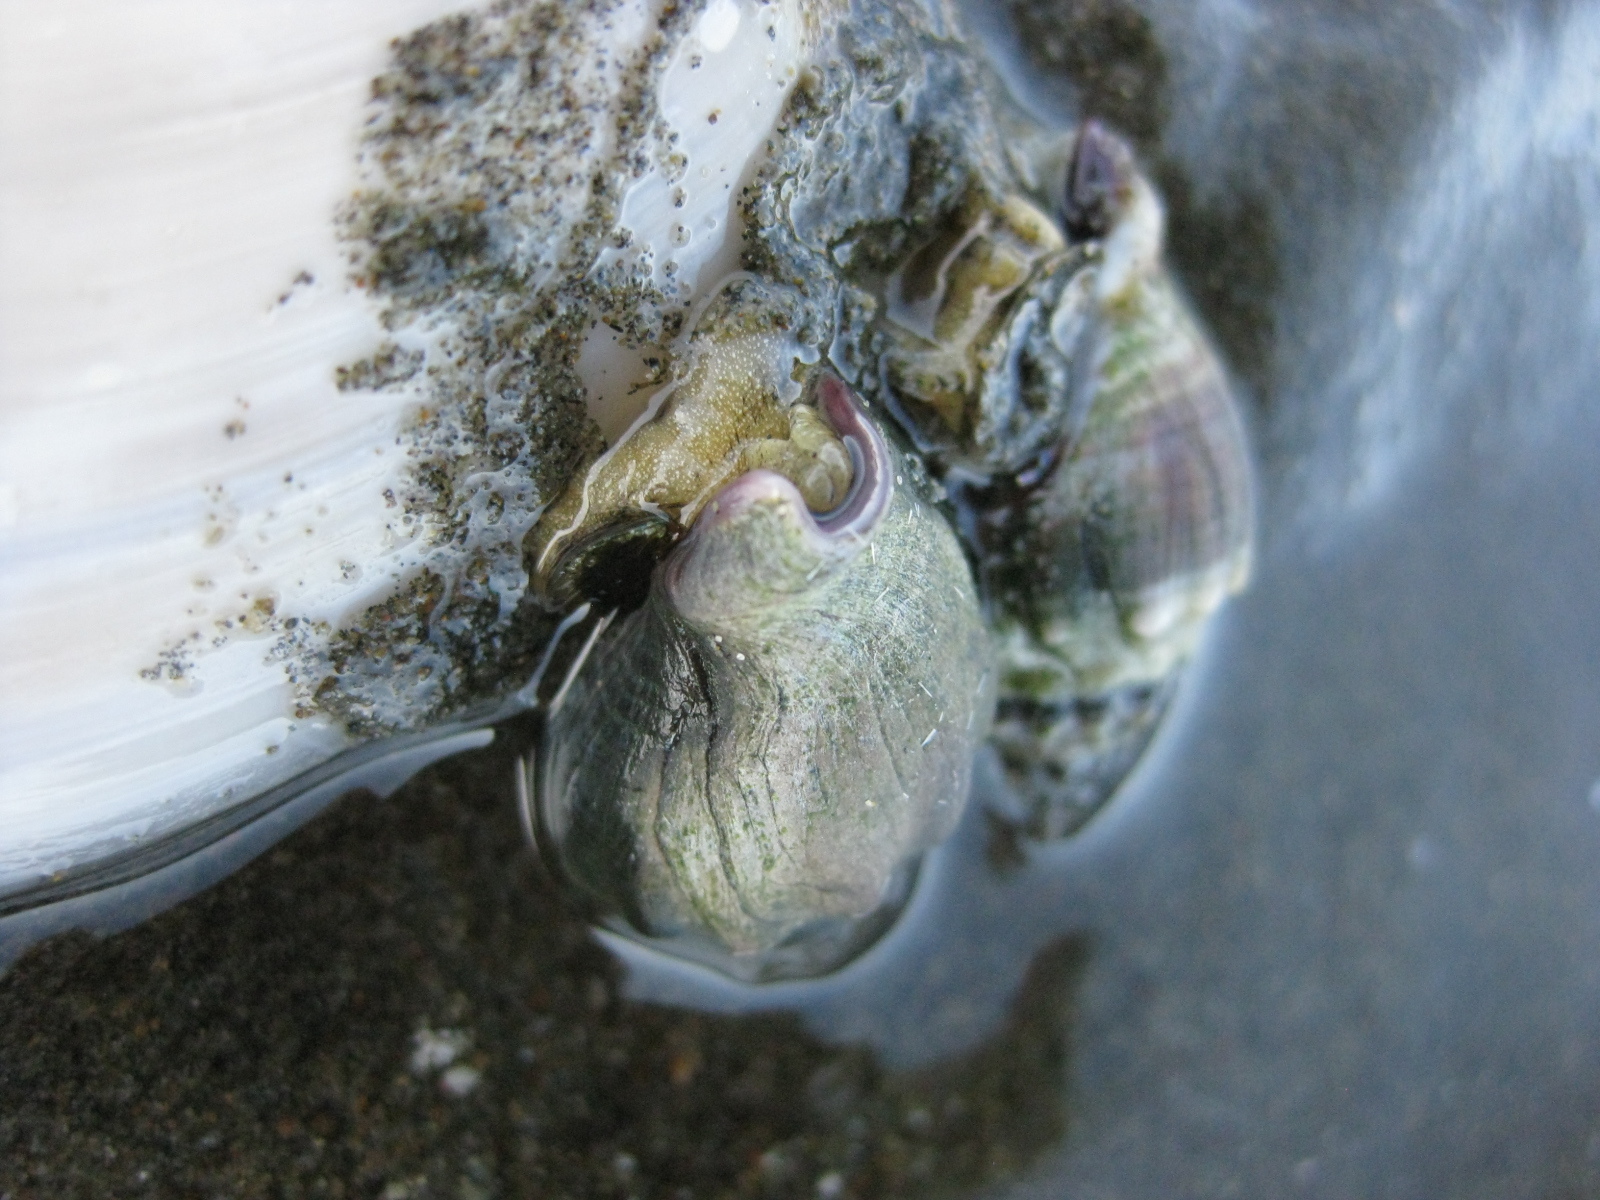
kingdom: Animalia
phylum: Mollusca
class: Gastropoda
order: Neogastropoda
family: Cominellidae
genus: Cominella
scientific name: Cominella glandiformis
